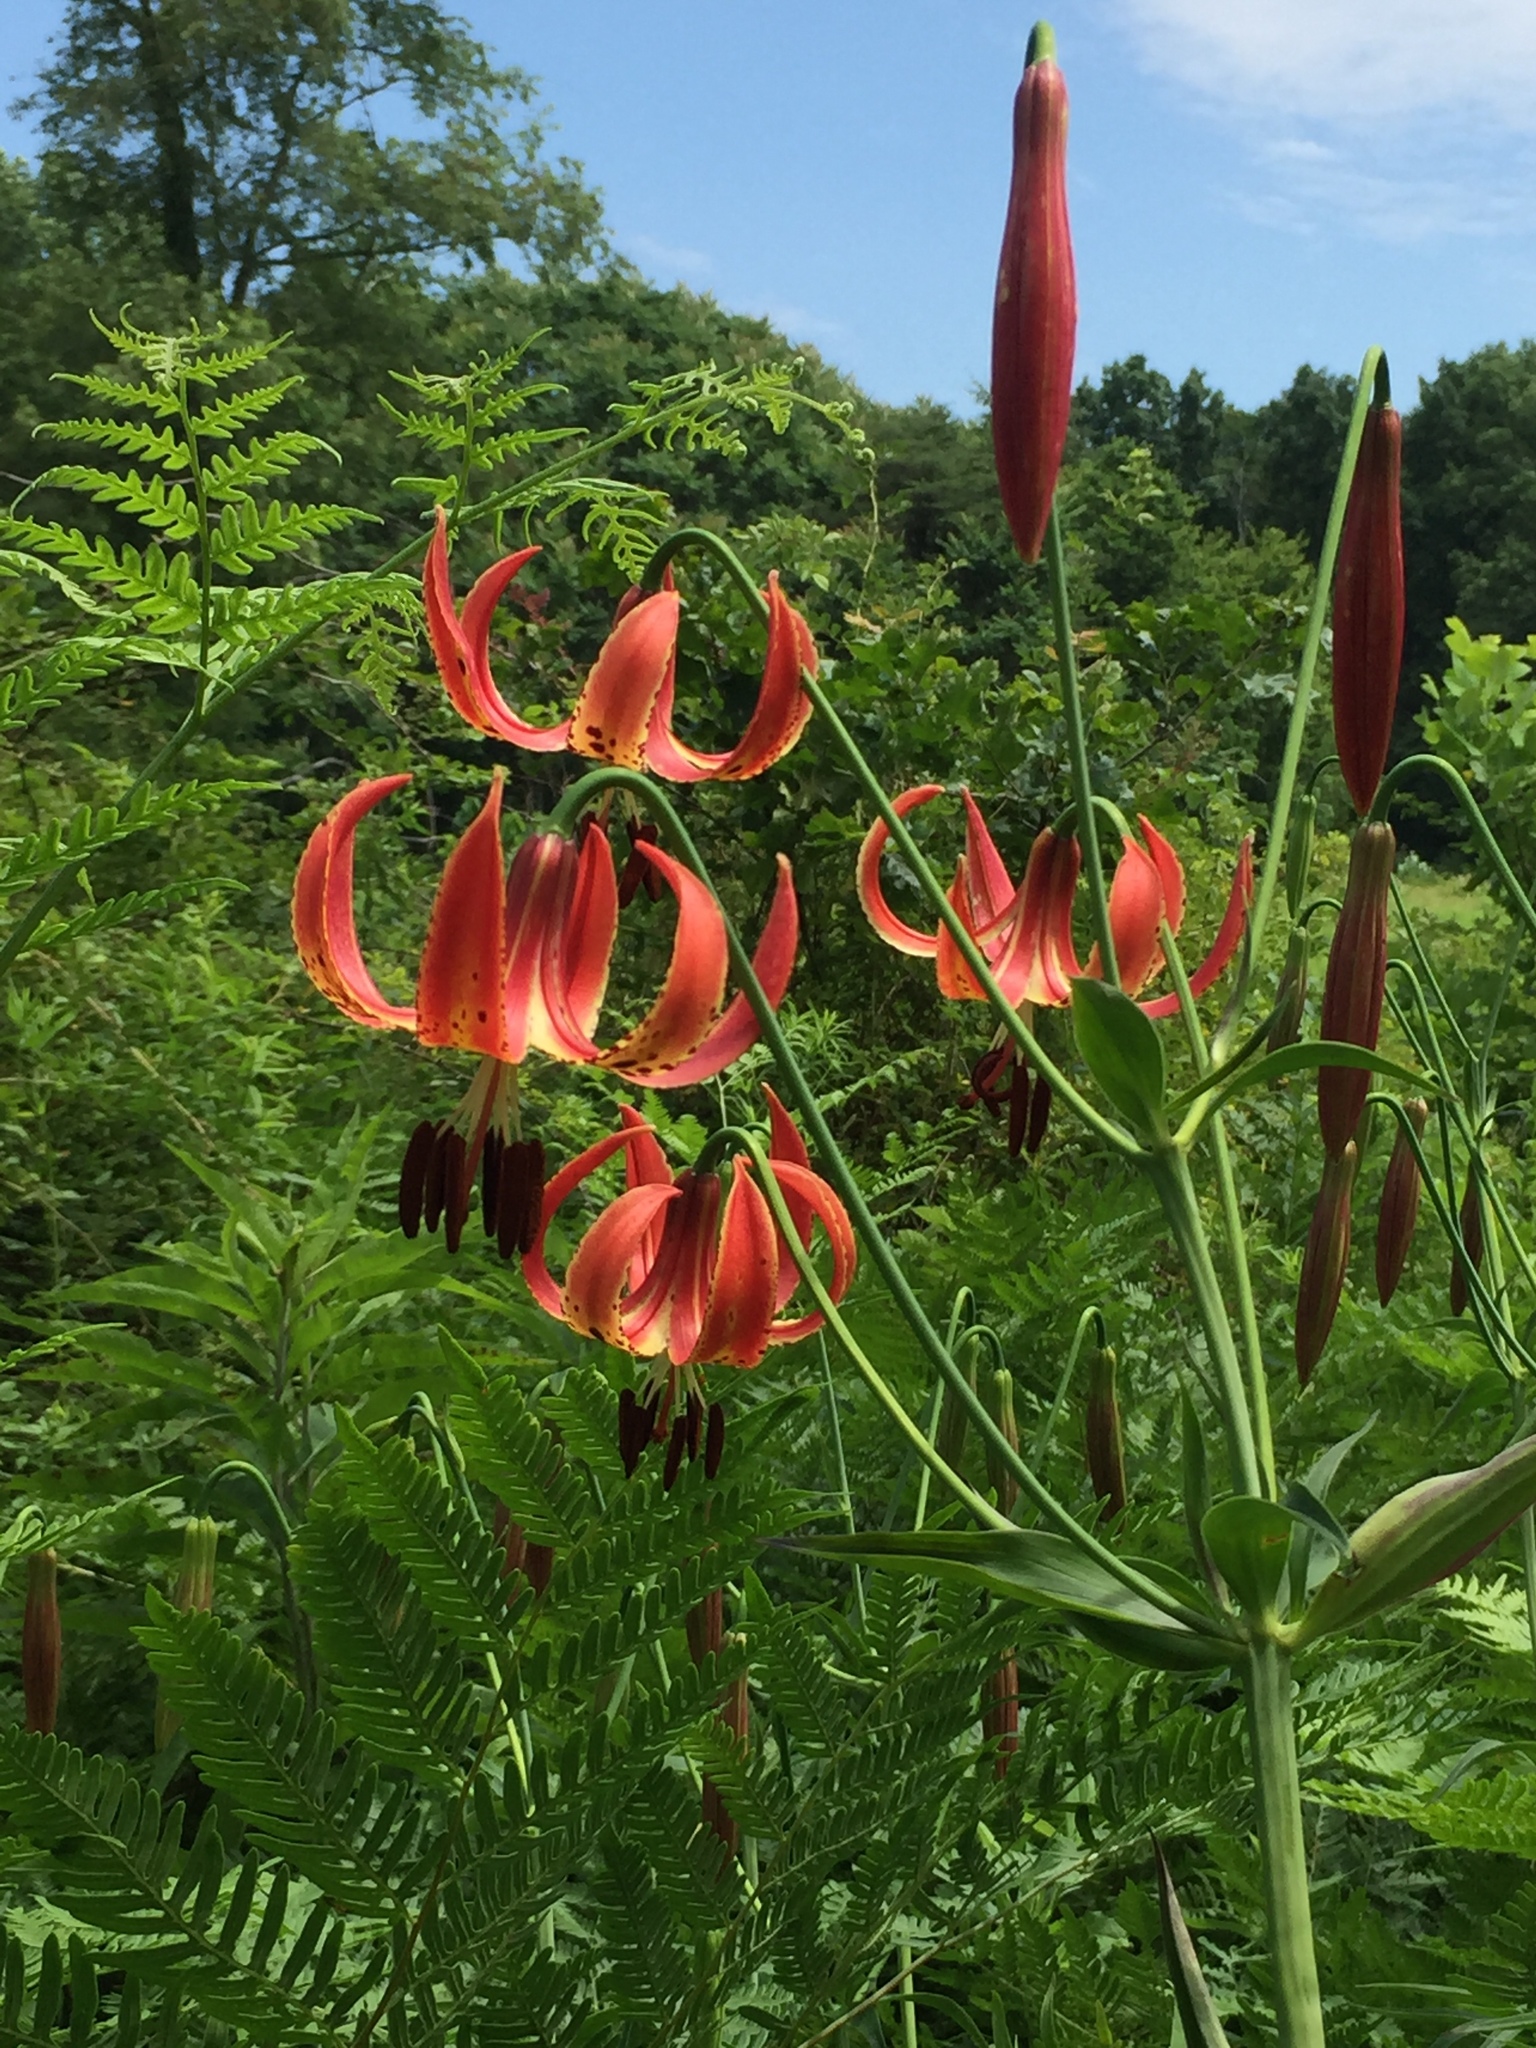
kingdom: Plantae
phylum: Tracheophyta
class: Liliopsida
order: Liliales
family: Liliaceae
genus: Lilium
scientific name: Lilium michiganense
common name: Michigan lily
